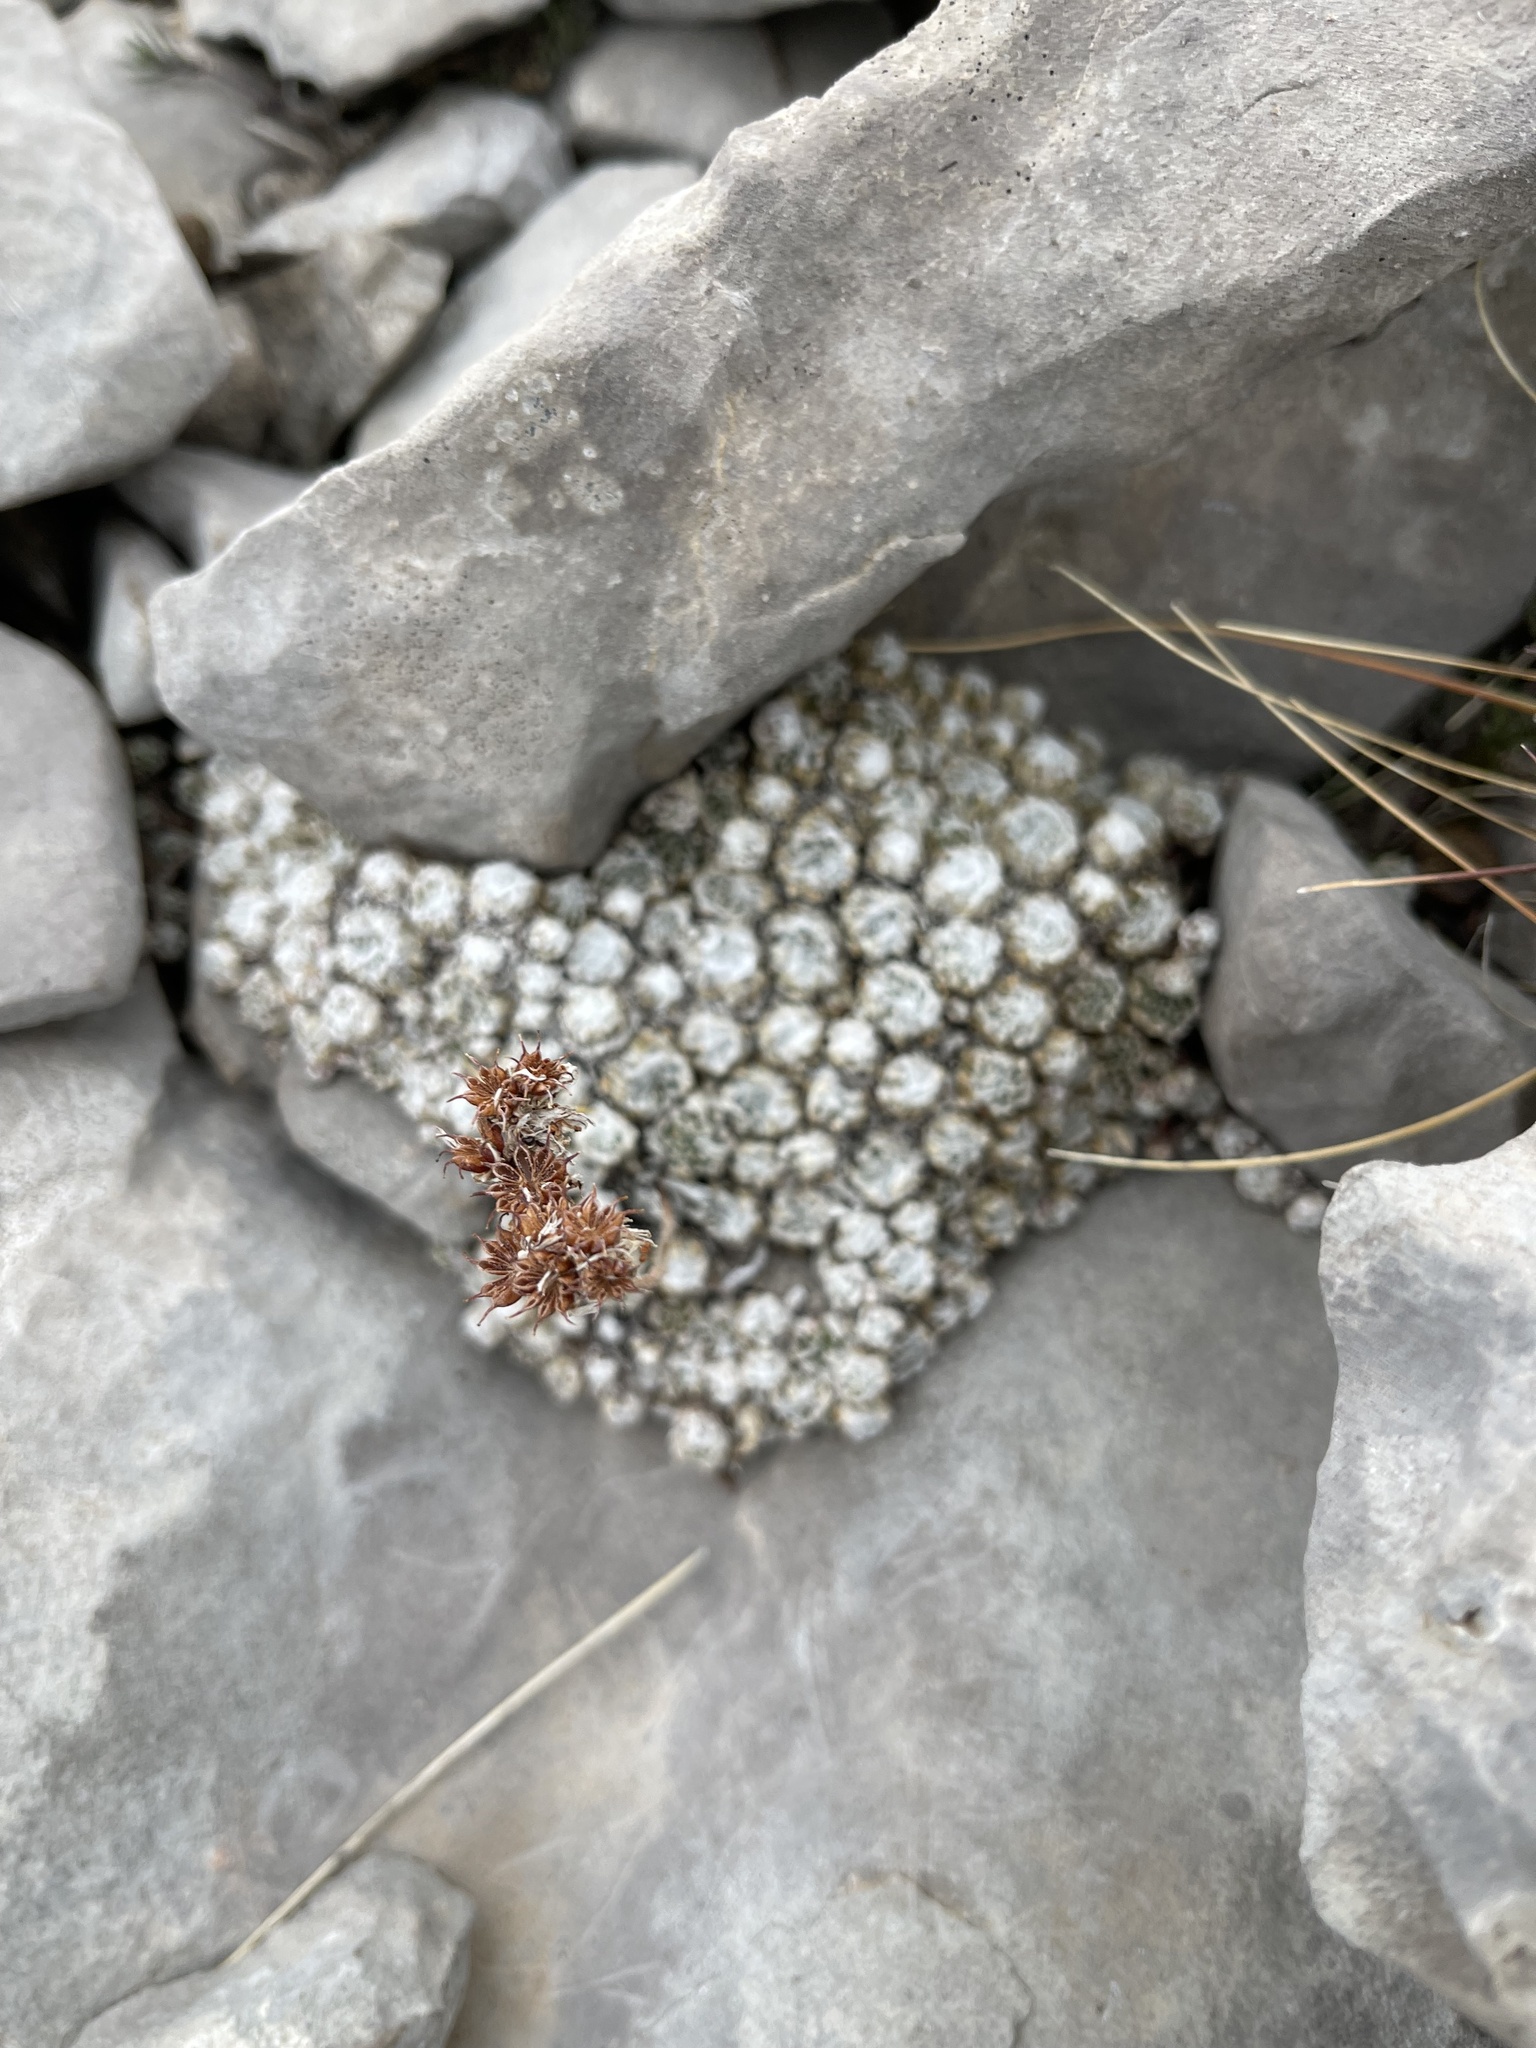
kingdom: Plantae
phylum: Tracheophyta
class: Magnoliopsida
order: Saxifragales
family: Crassulaceae
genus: Sempervivum
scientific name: Sempervivum arachnoideum
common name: Cobweb house-leek
